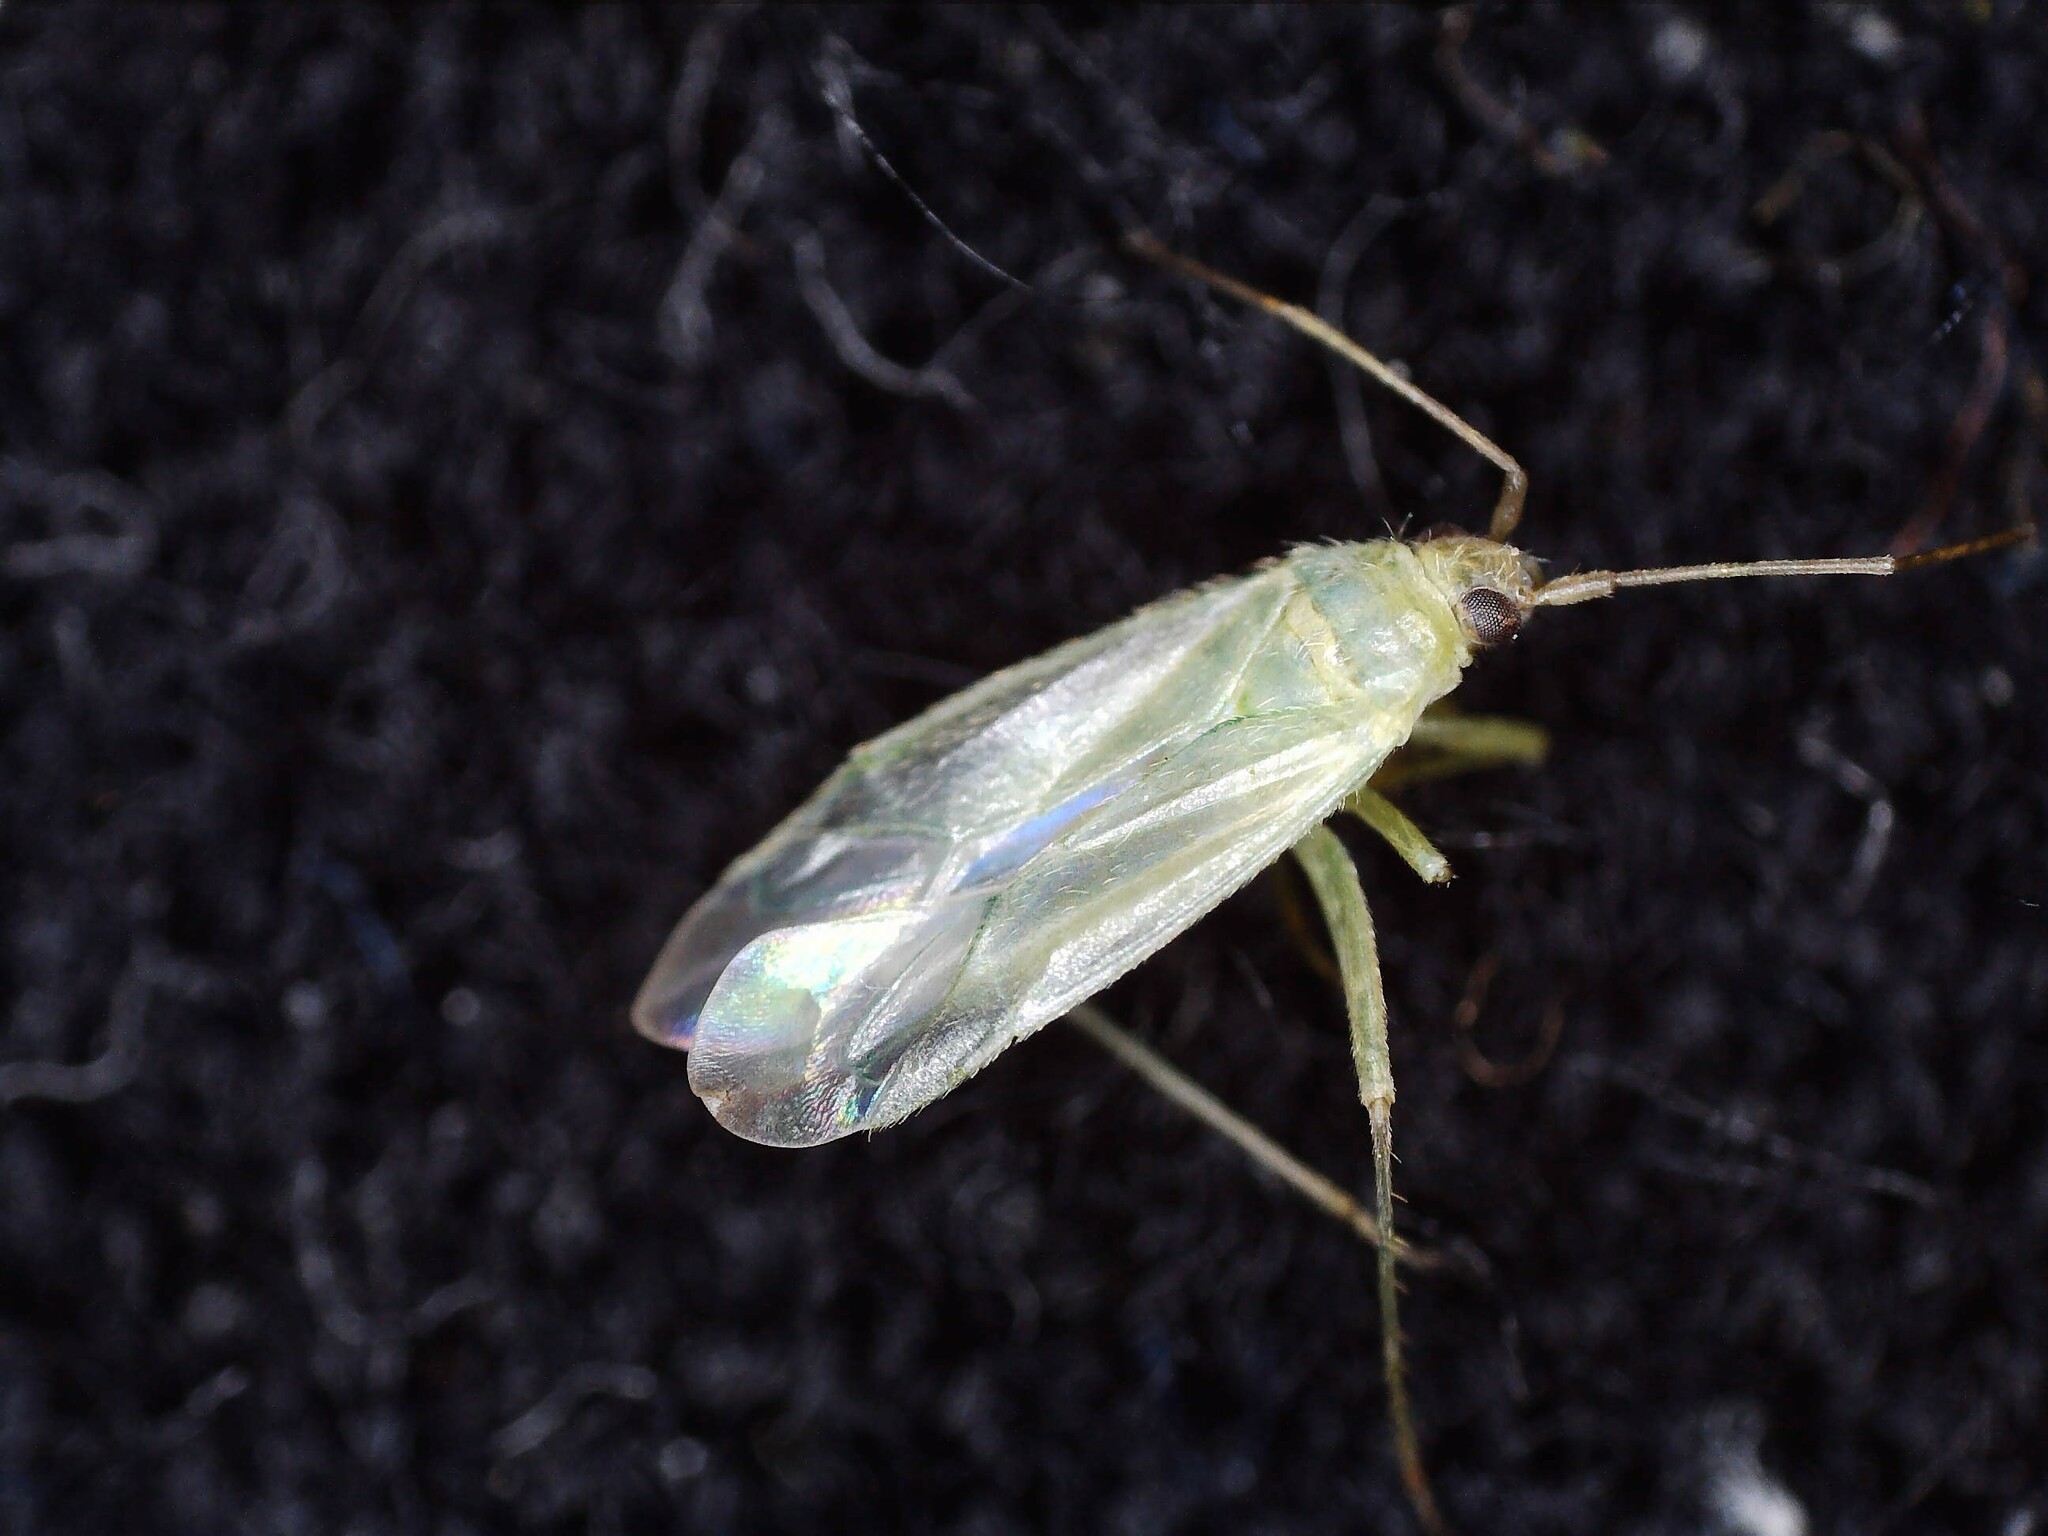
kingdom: Animalia
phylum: Arthropoda
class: Insecta
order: Hemiptera
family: Miridae
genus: Blepharidopterus
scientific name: Blepharidopterus diaphanus
